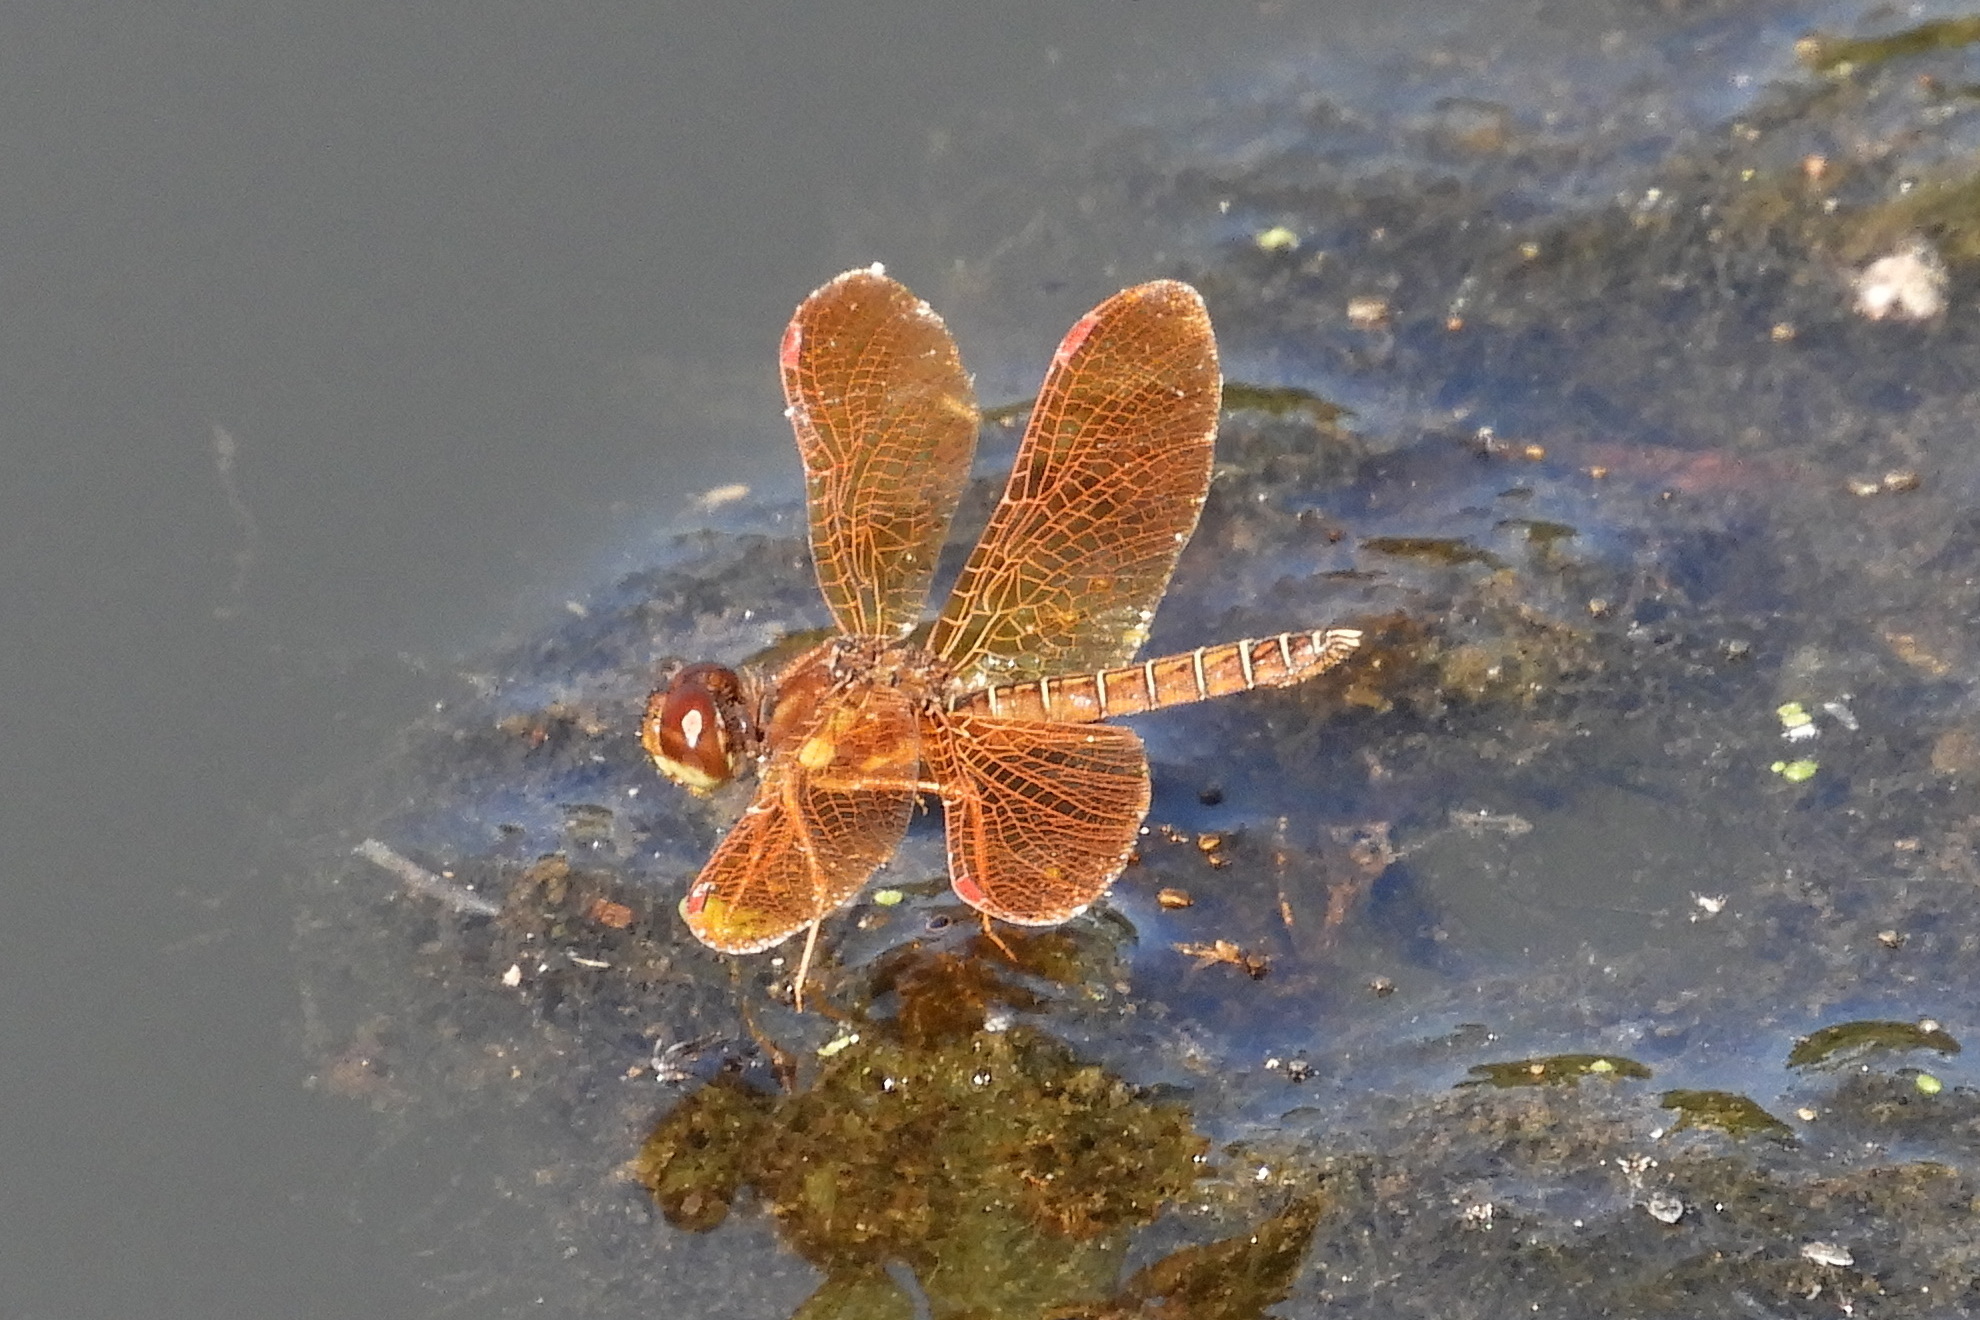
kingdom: Animalia
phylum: Arthropoda
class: Insecta
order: Odonata
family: Libellulidae
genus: Perithemis
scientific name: Perithemis tenera
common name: Eastern amberwing
